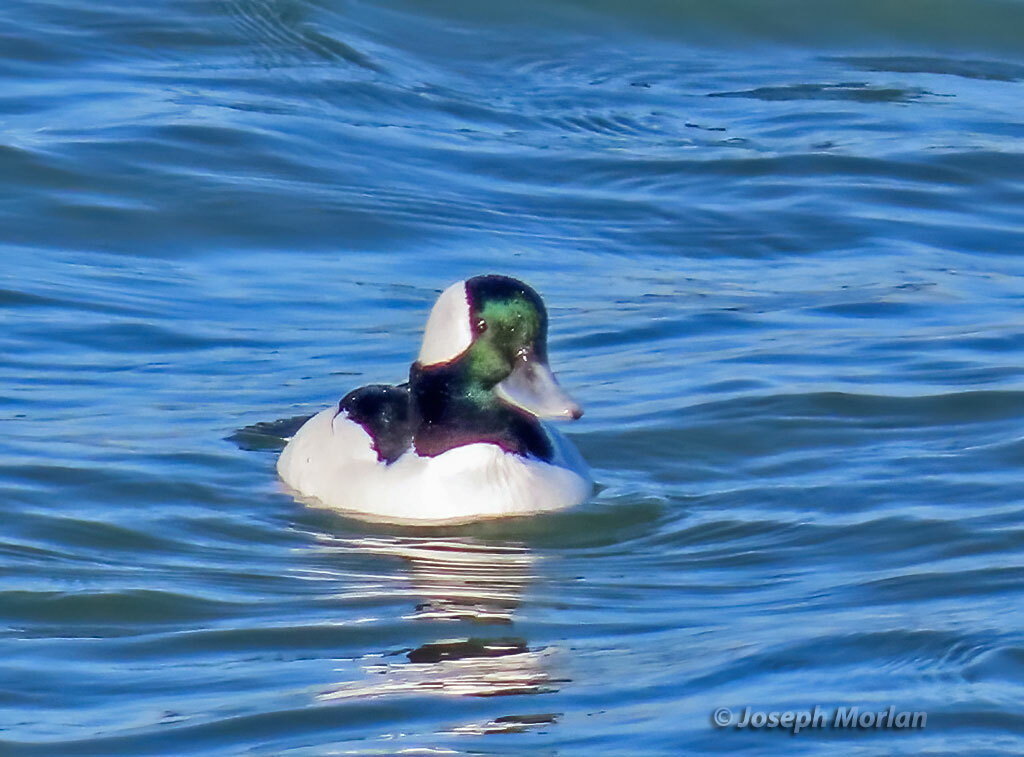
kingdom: Animalia
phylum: Chordata
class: Aves
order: Anseriformes
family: Anatidae
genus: Bucephala
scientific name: Bucephala albeola
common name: Bufflehead
